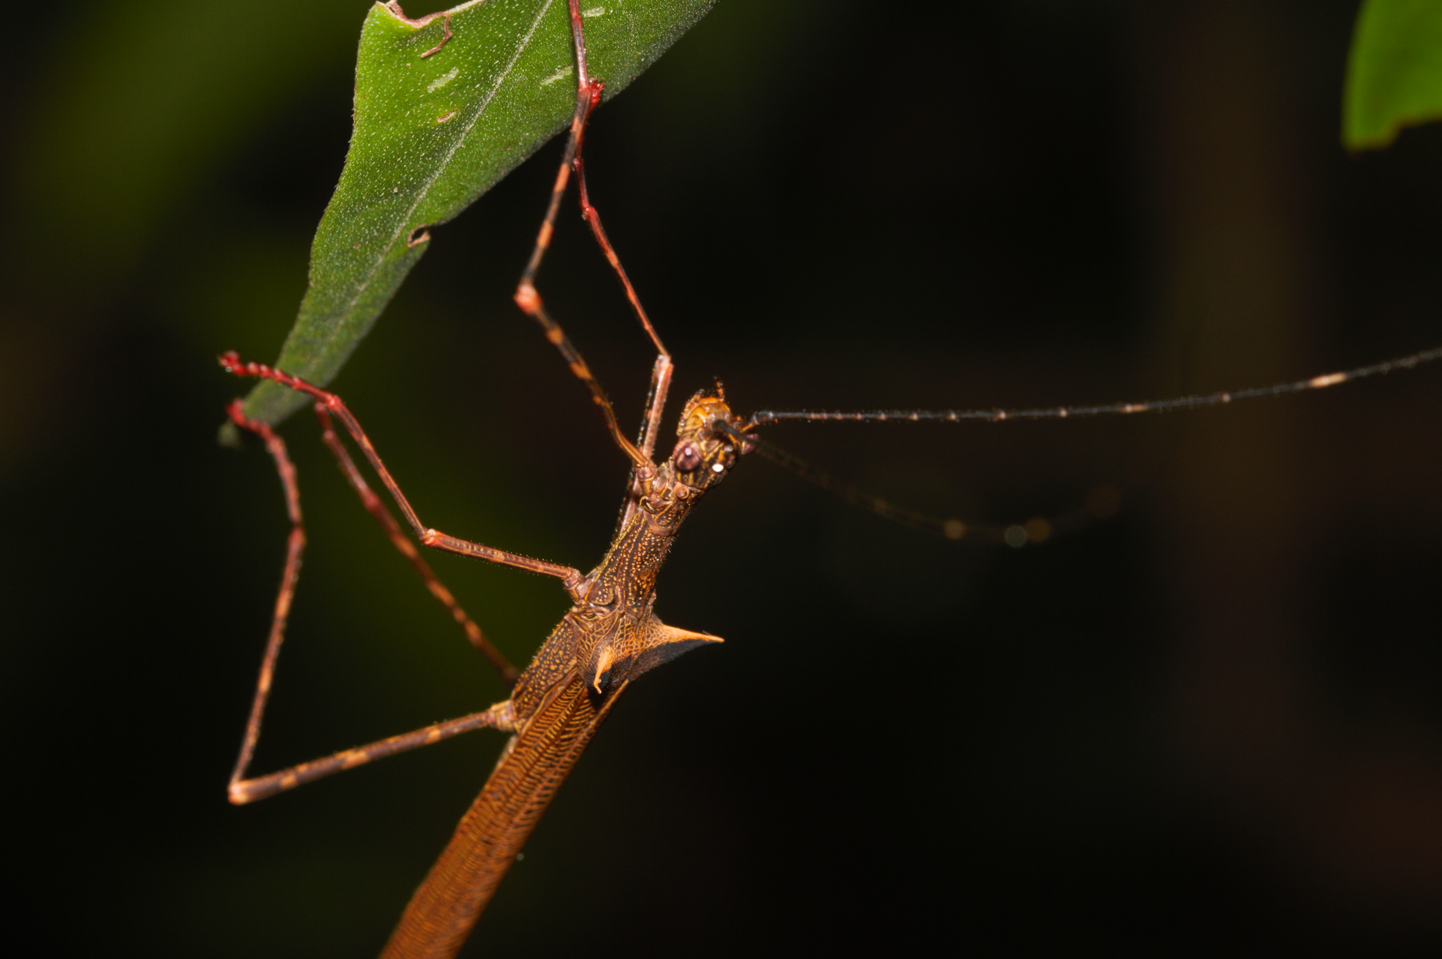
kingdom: Animalia
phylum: Arthropoda
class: Insecta
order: Phasmida
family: Pseudophasmatidae
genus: Paraphasma
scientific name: Paraphasma trianguliferum
